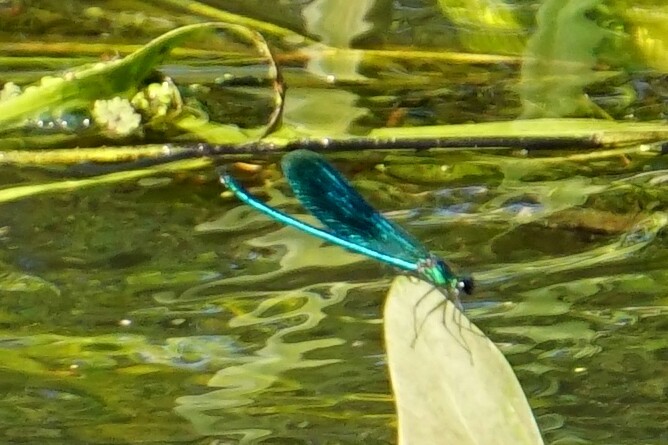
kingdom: Animalia
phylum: Arthropoda
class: Insecta
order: Odonata
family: Calopterygidae
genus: Calopteryx
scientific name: Calopteryx splendens
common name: Banded demoiselle
